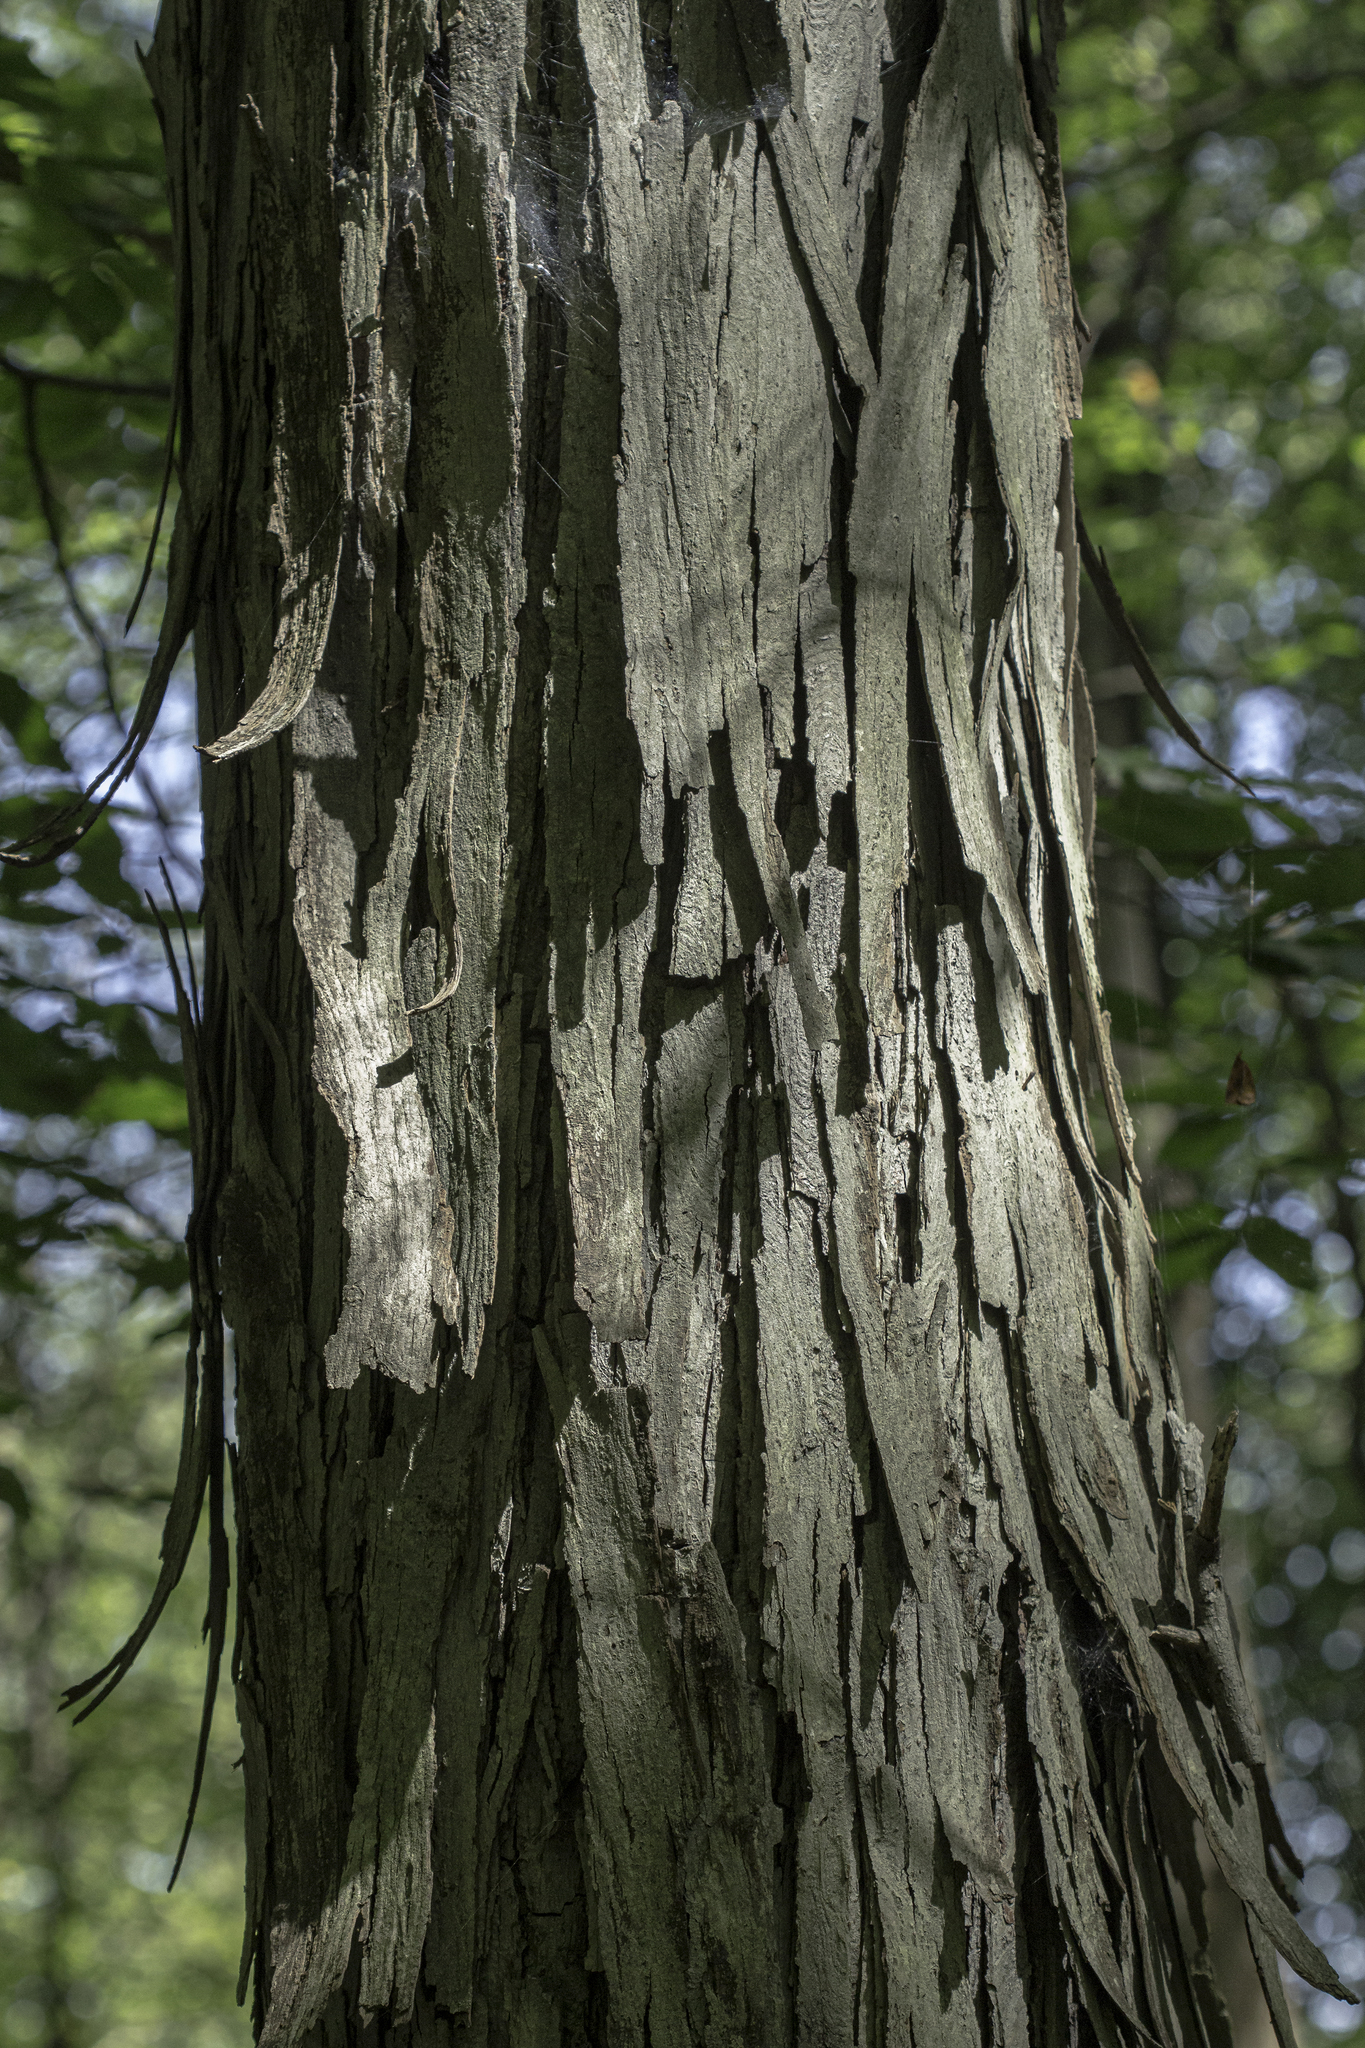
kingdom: Plantae
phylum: Tracheophyta
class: Magnoliopsida
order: Fagales
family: Juglandaceae
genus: Carya
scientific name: Carya ovata
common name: Shagbark hickory
